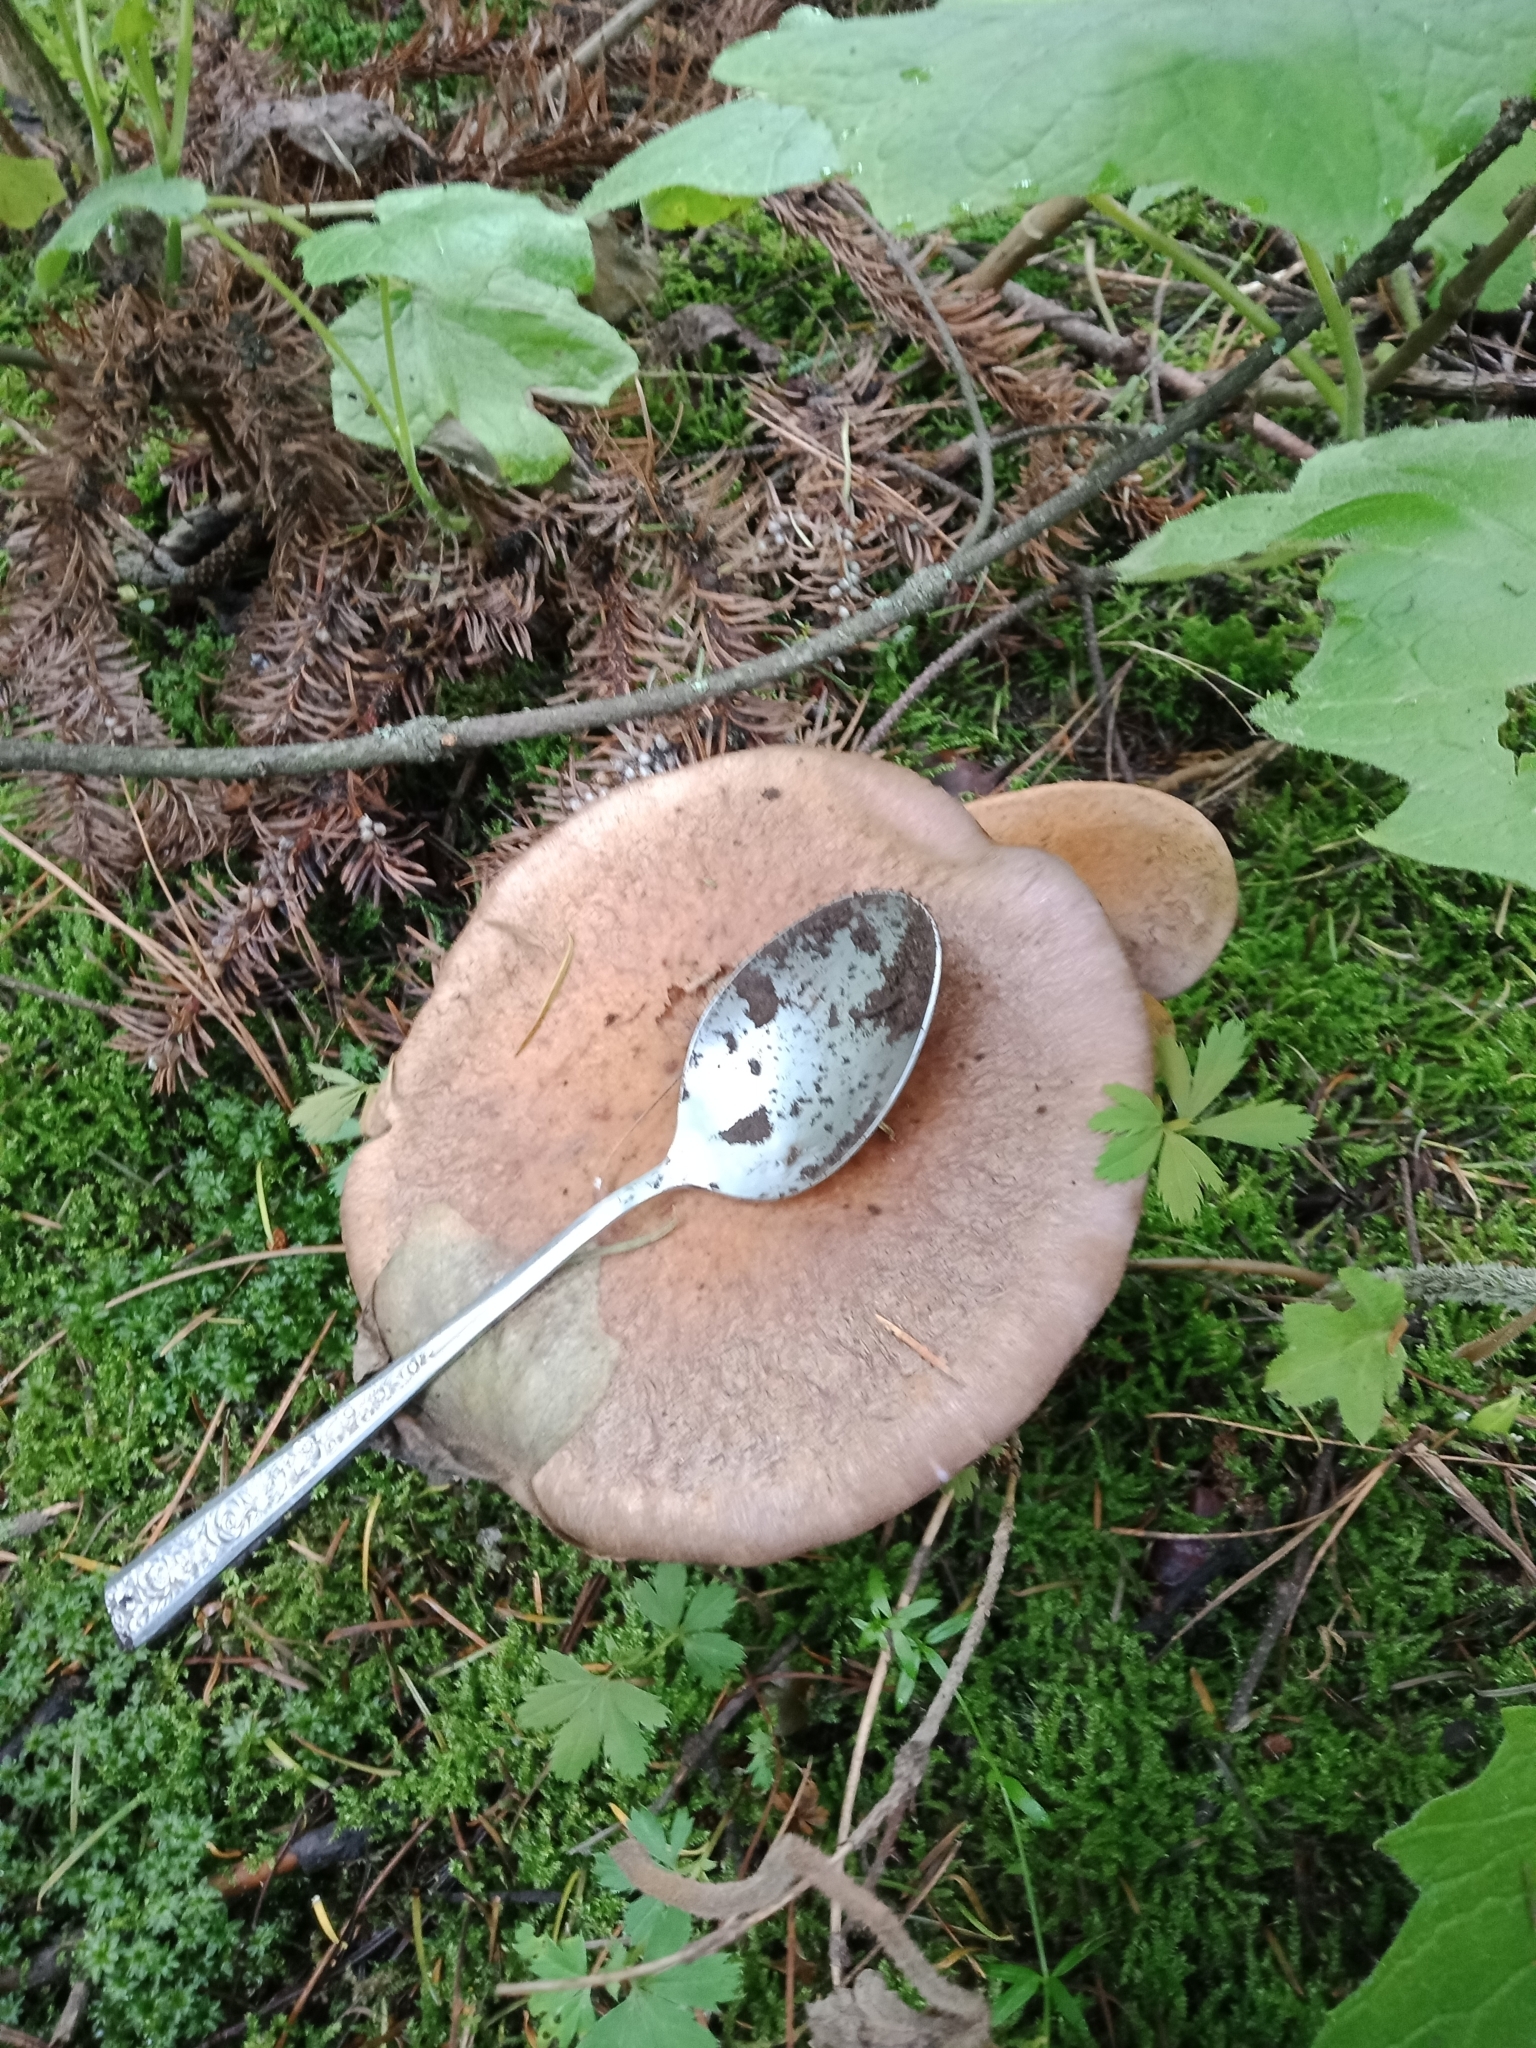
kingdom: Fungi
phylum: Basidiomycota
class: Agaricomycetes
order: Russulales
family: Russulaceae
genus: Lactarius
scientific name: Lactarius trivialis
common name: Tacked milkcap
